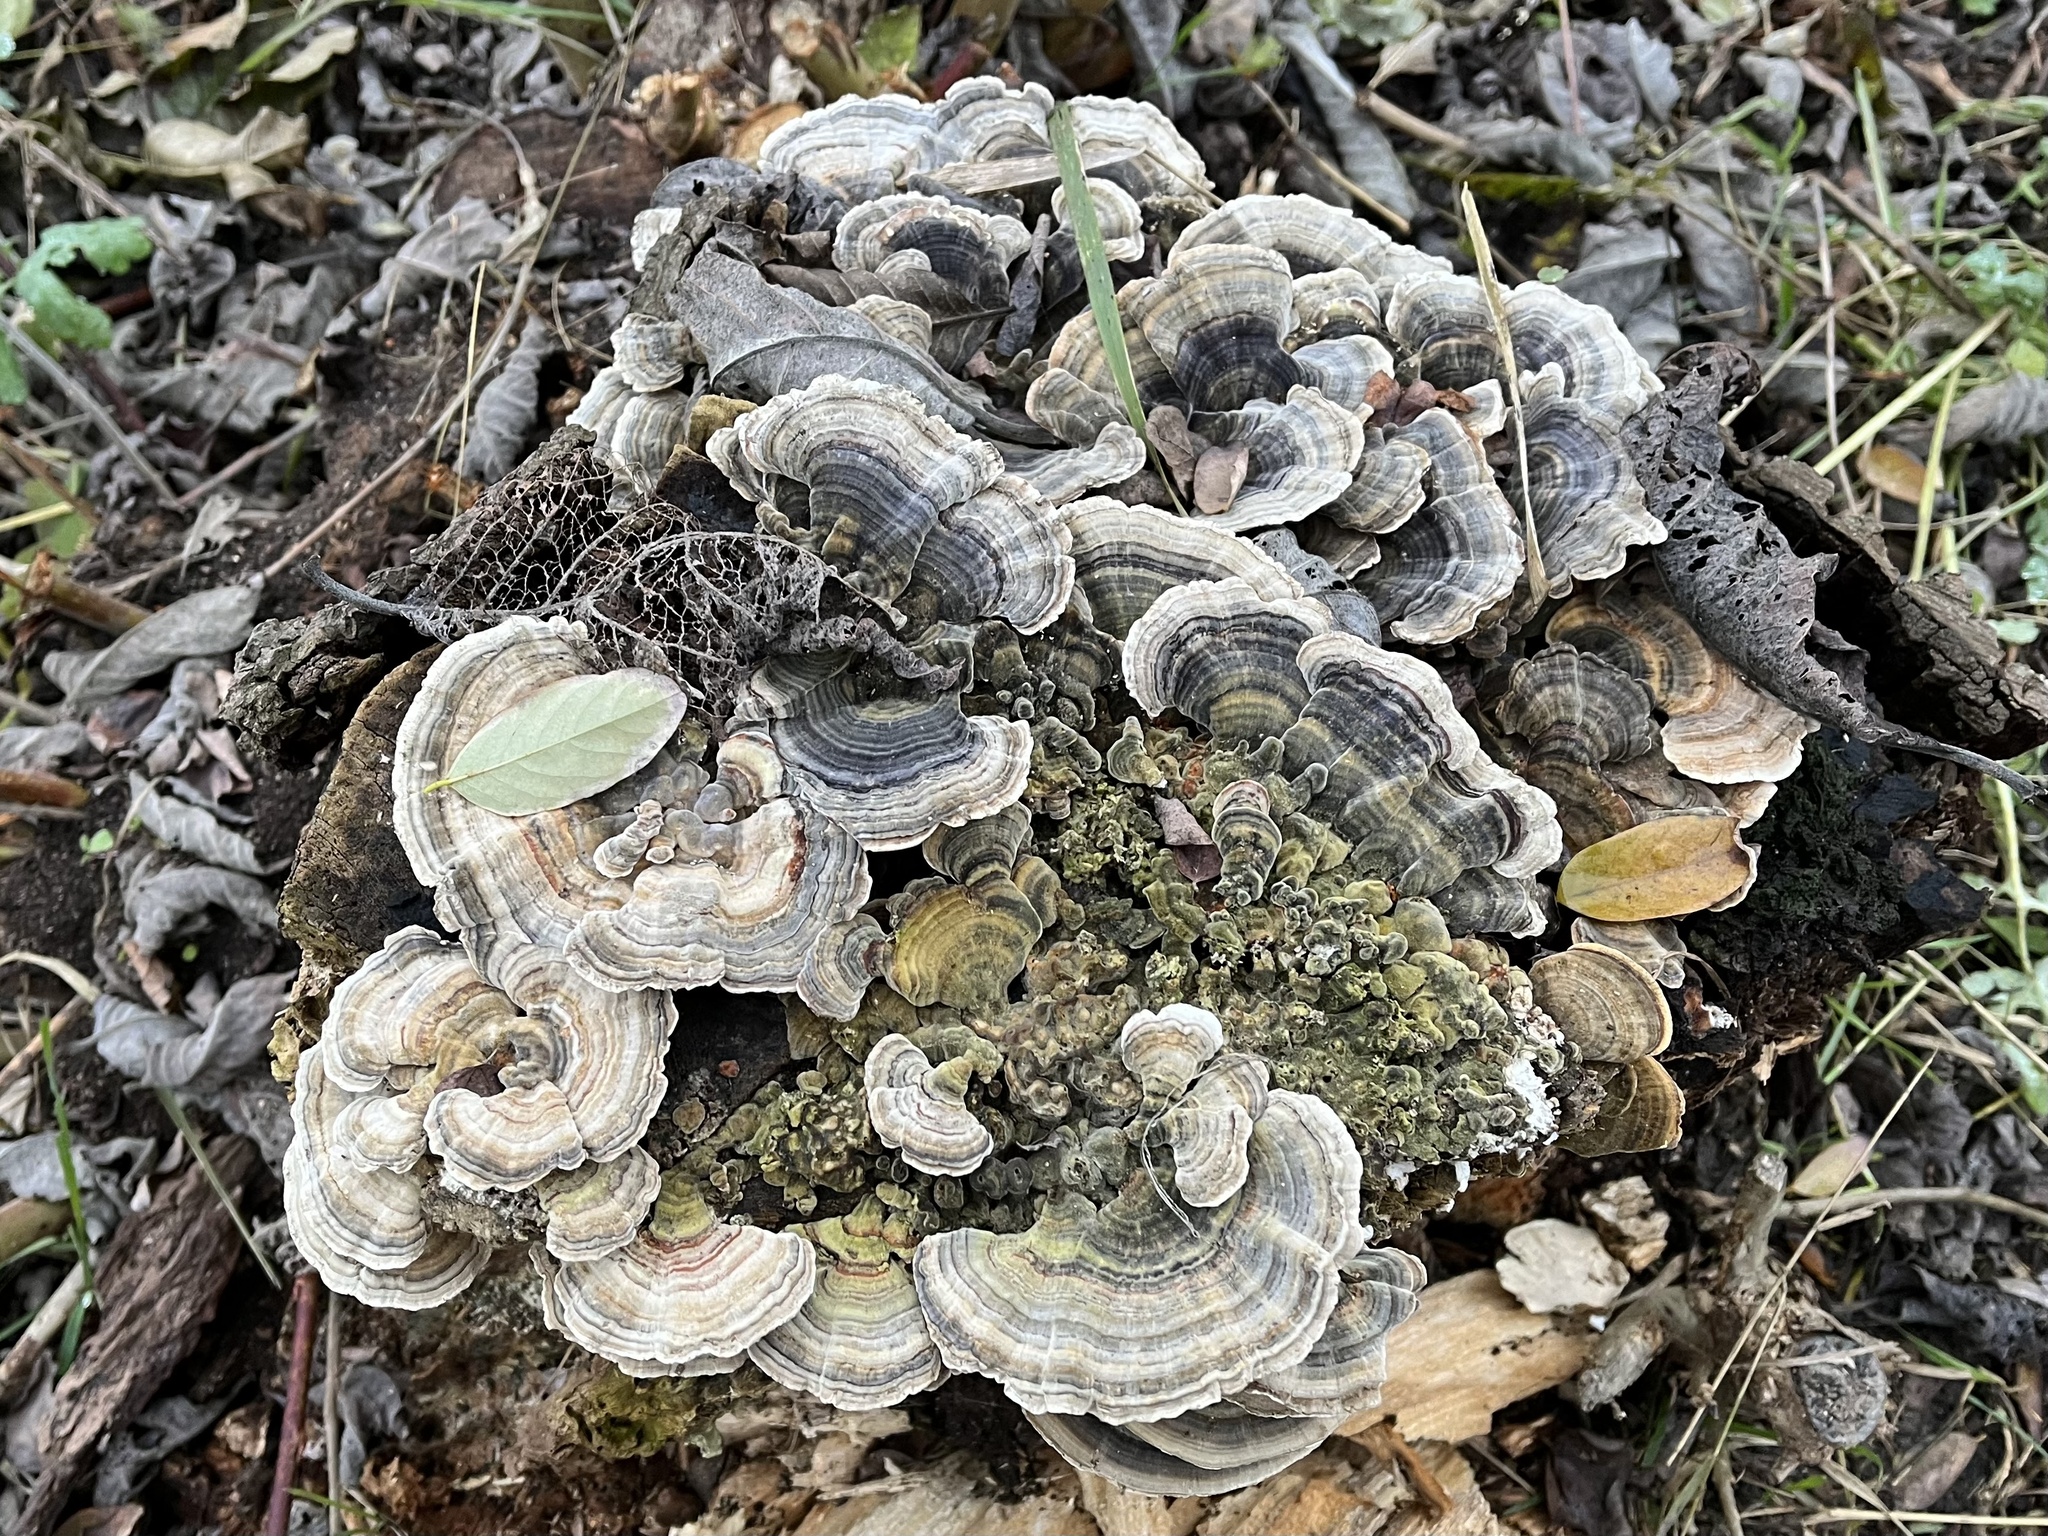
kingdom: Fungi
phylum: Basidiomycota
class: Agaricomycetes
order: Polyporales
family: Polyporaceae
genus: Trametes
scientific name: Trametes versicolor
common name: Turkeytail
